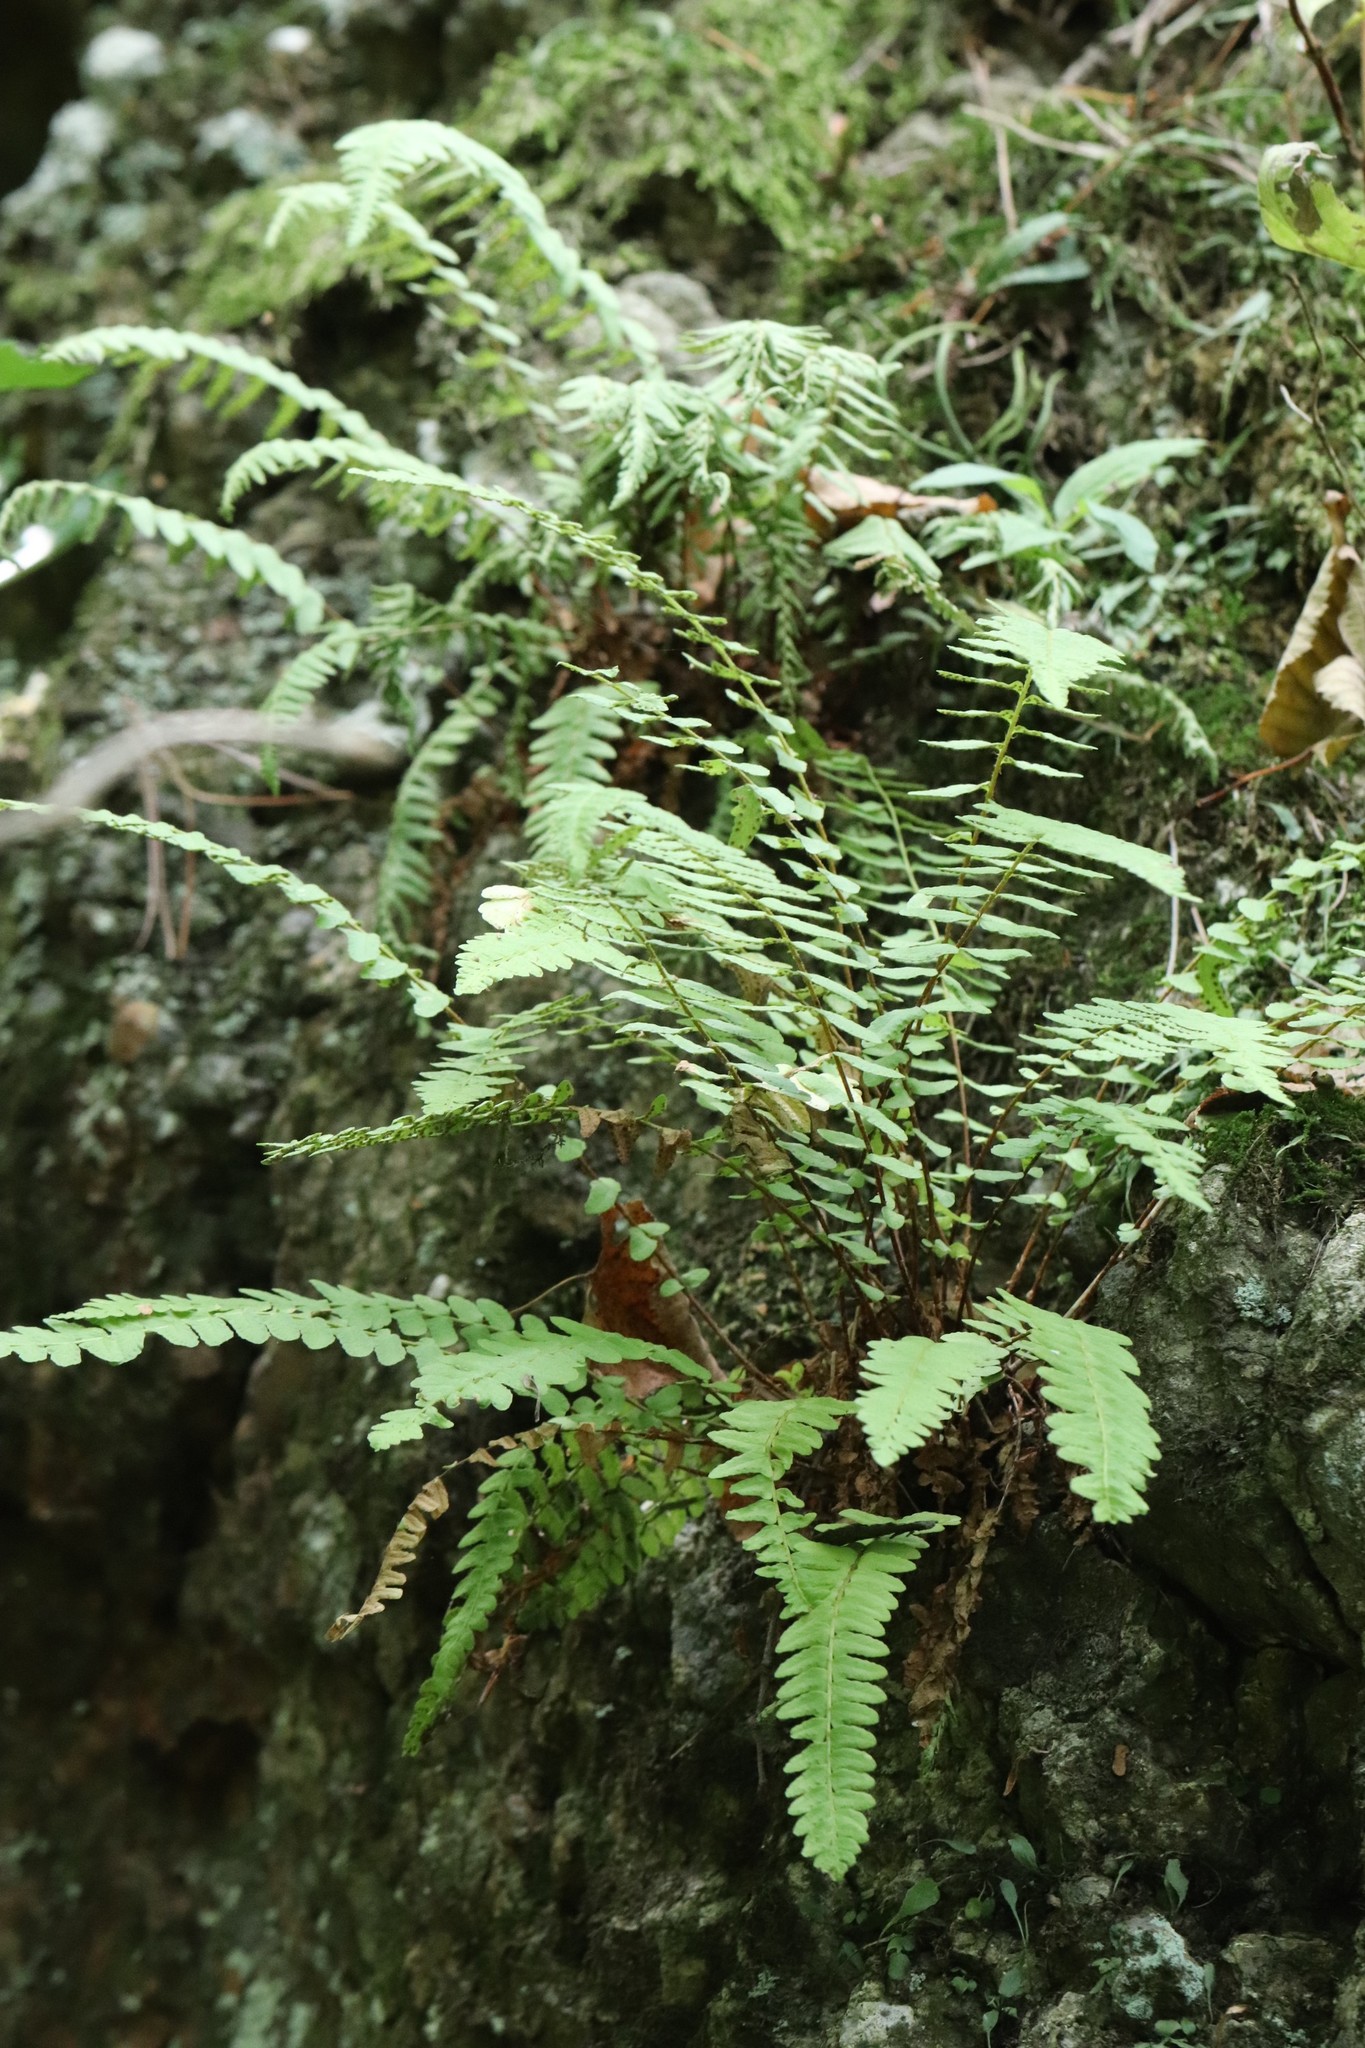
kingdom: Plantae
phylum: Tracheophyta
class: Polypodiopsida
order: Polypodiales
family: Woodsiaceae
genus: Woodsia
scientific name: Woodsia polystichoides
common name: Holly fern woodsia
